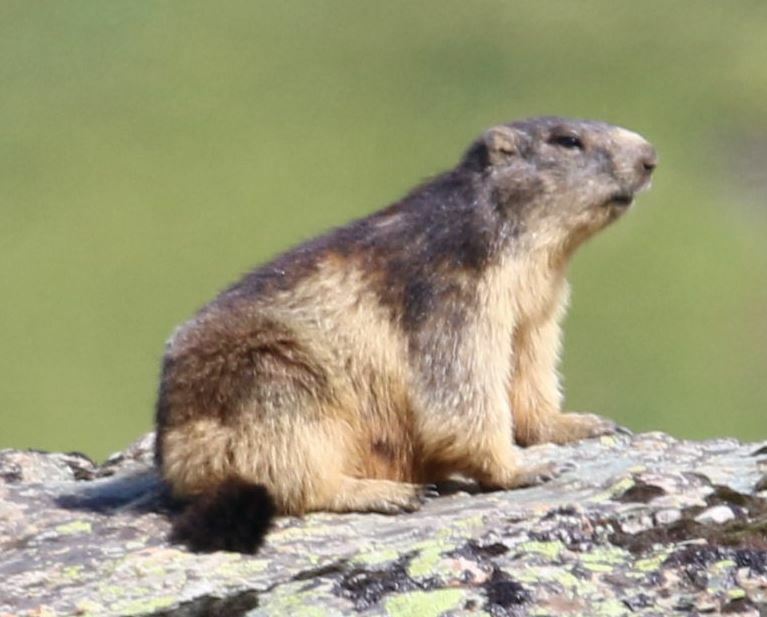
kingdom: Animalia
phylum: Chordata
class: Mammalia
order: Rodentia
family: Sciuridae
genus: Marmota
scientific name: Marmota marmota
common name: Alpine marmot
